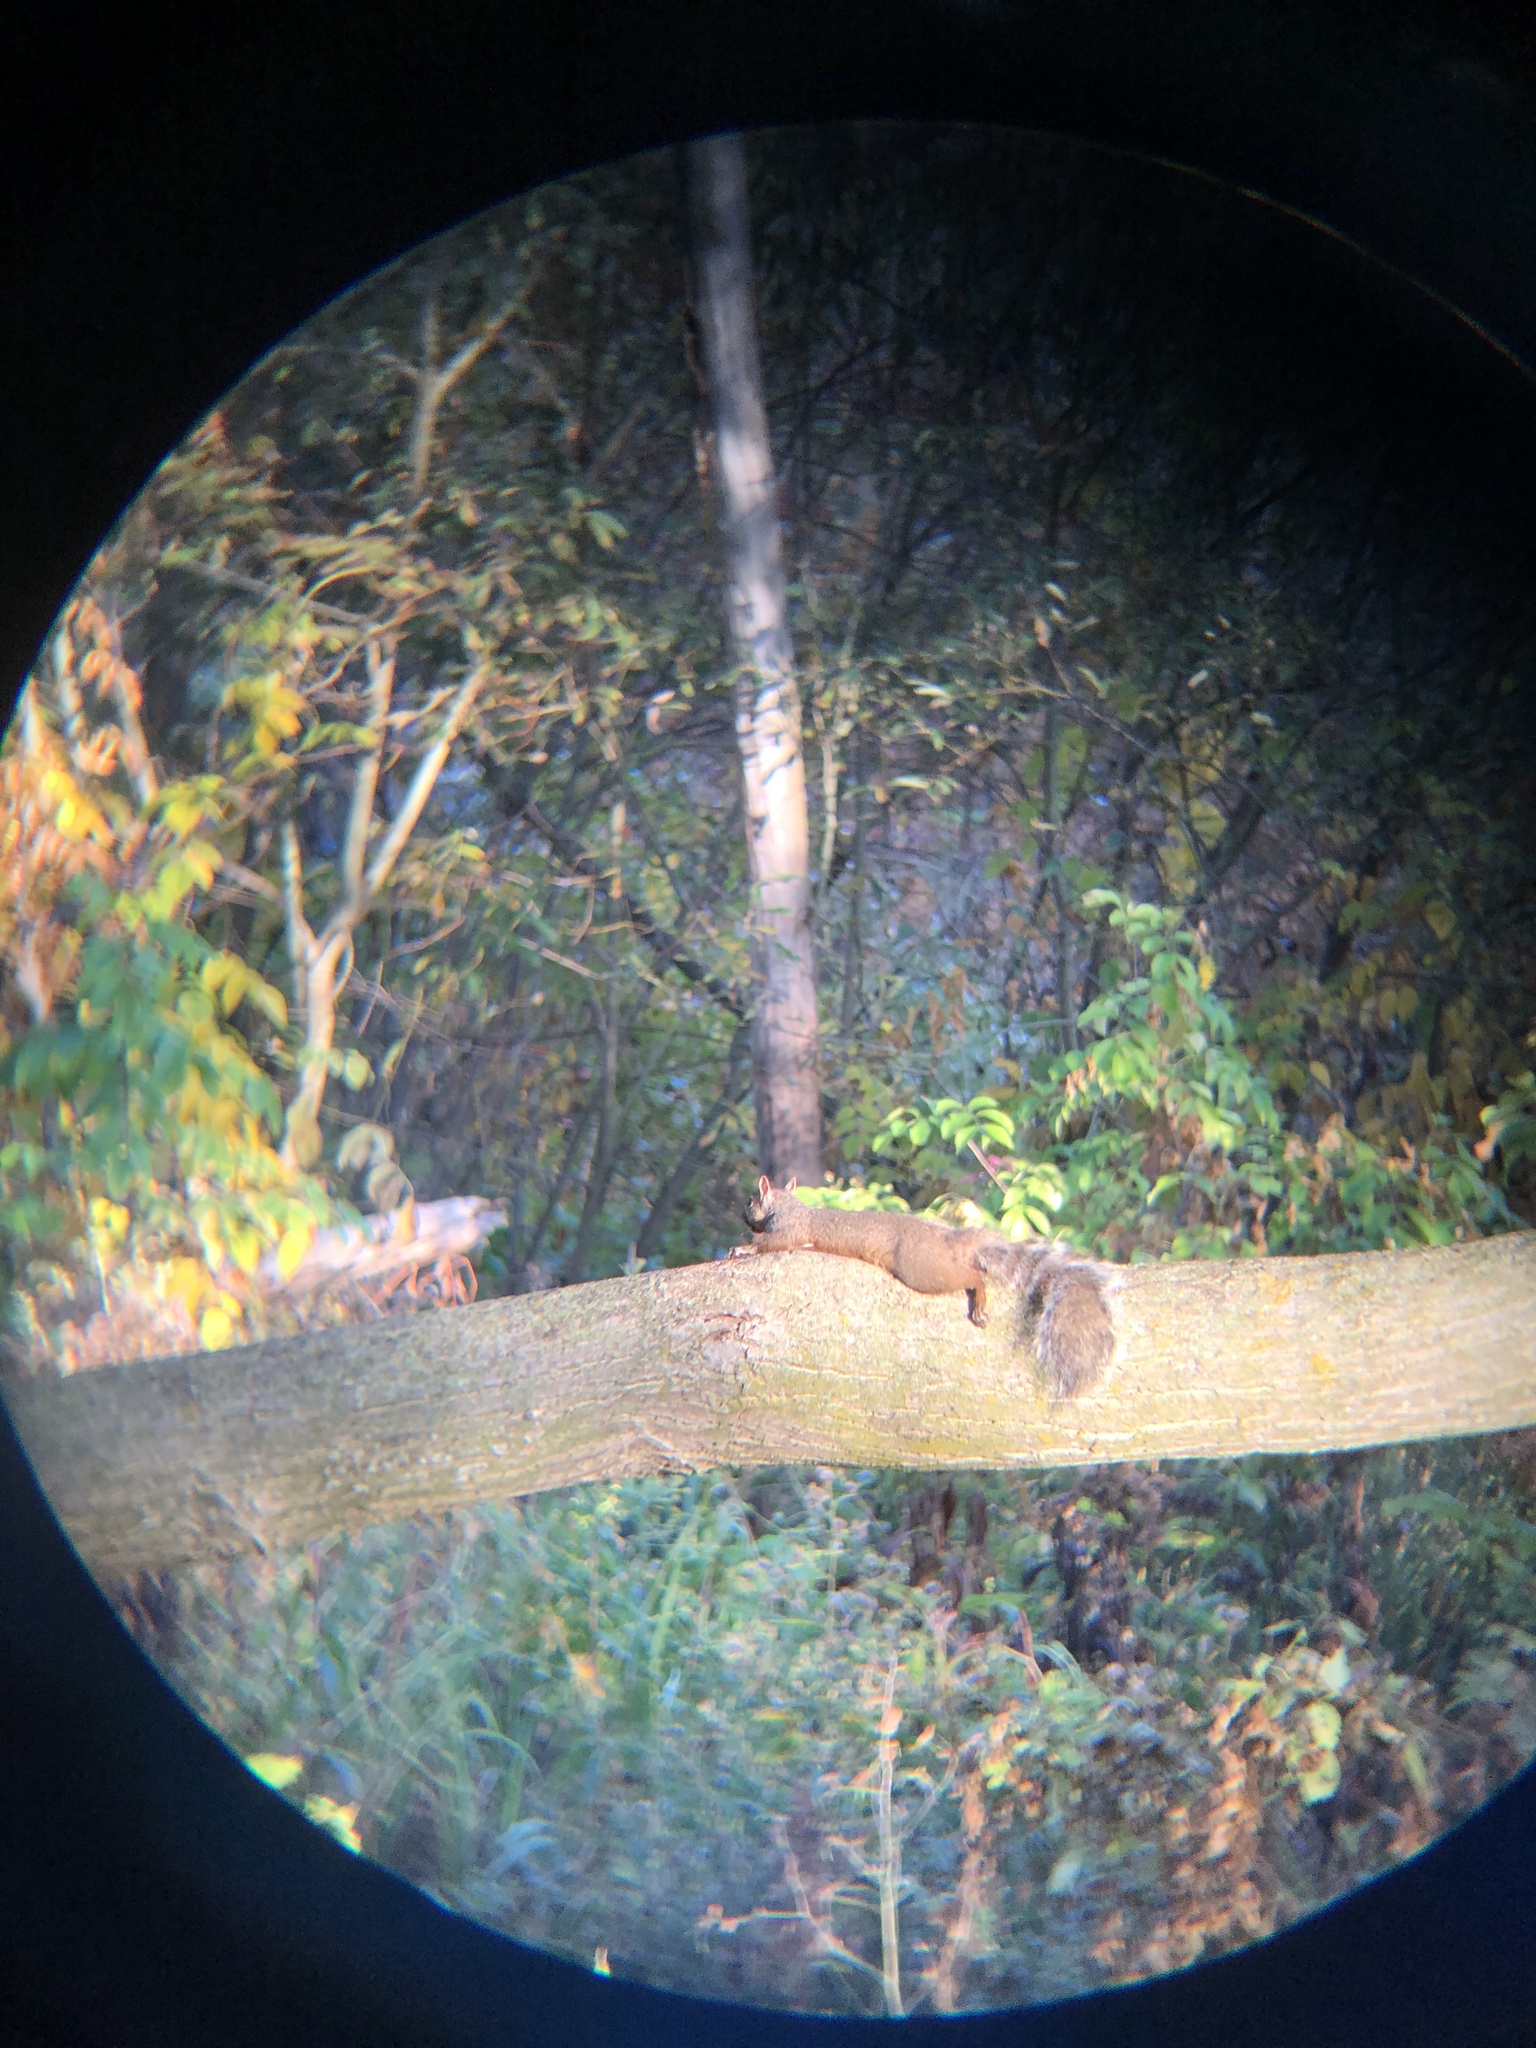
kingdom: Animalia
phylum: Chordata
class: Mammalia
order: Rodentia
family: Sciuridae
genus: Sciurus
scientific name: Sciurus carolinensis
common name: Eastern gray squirrel
